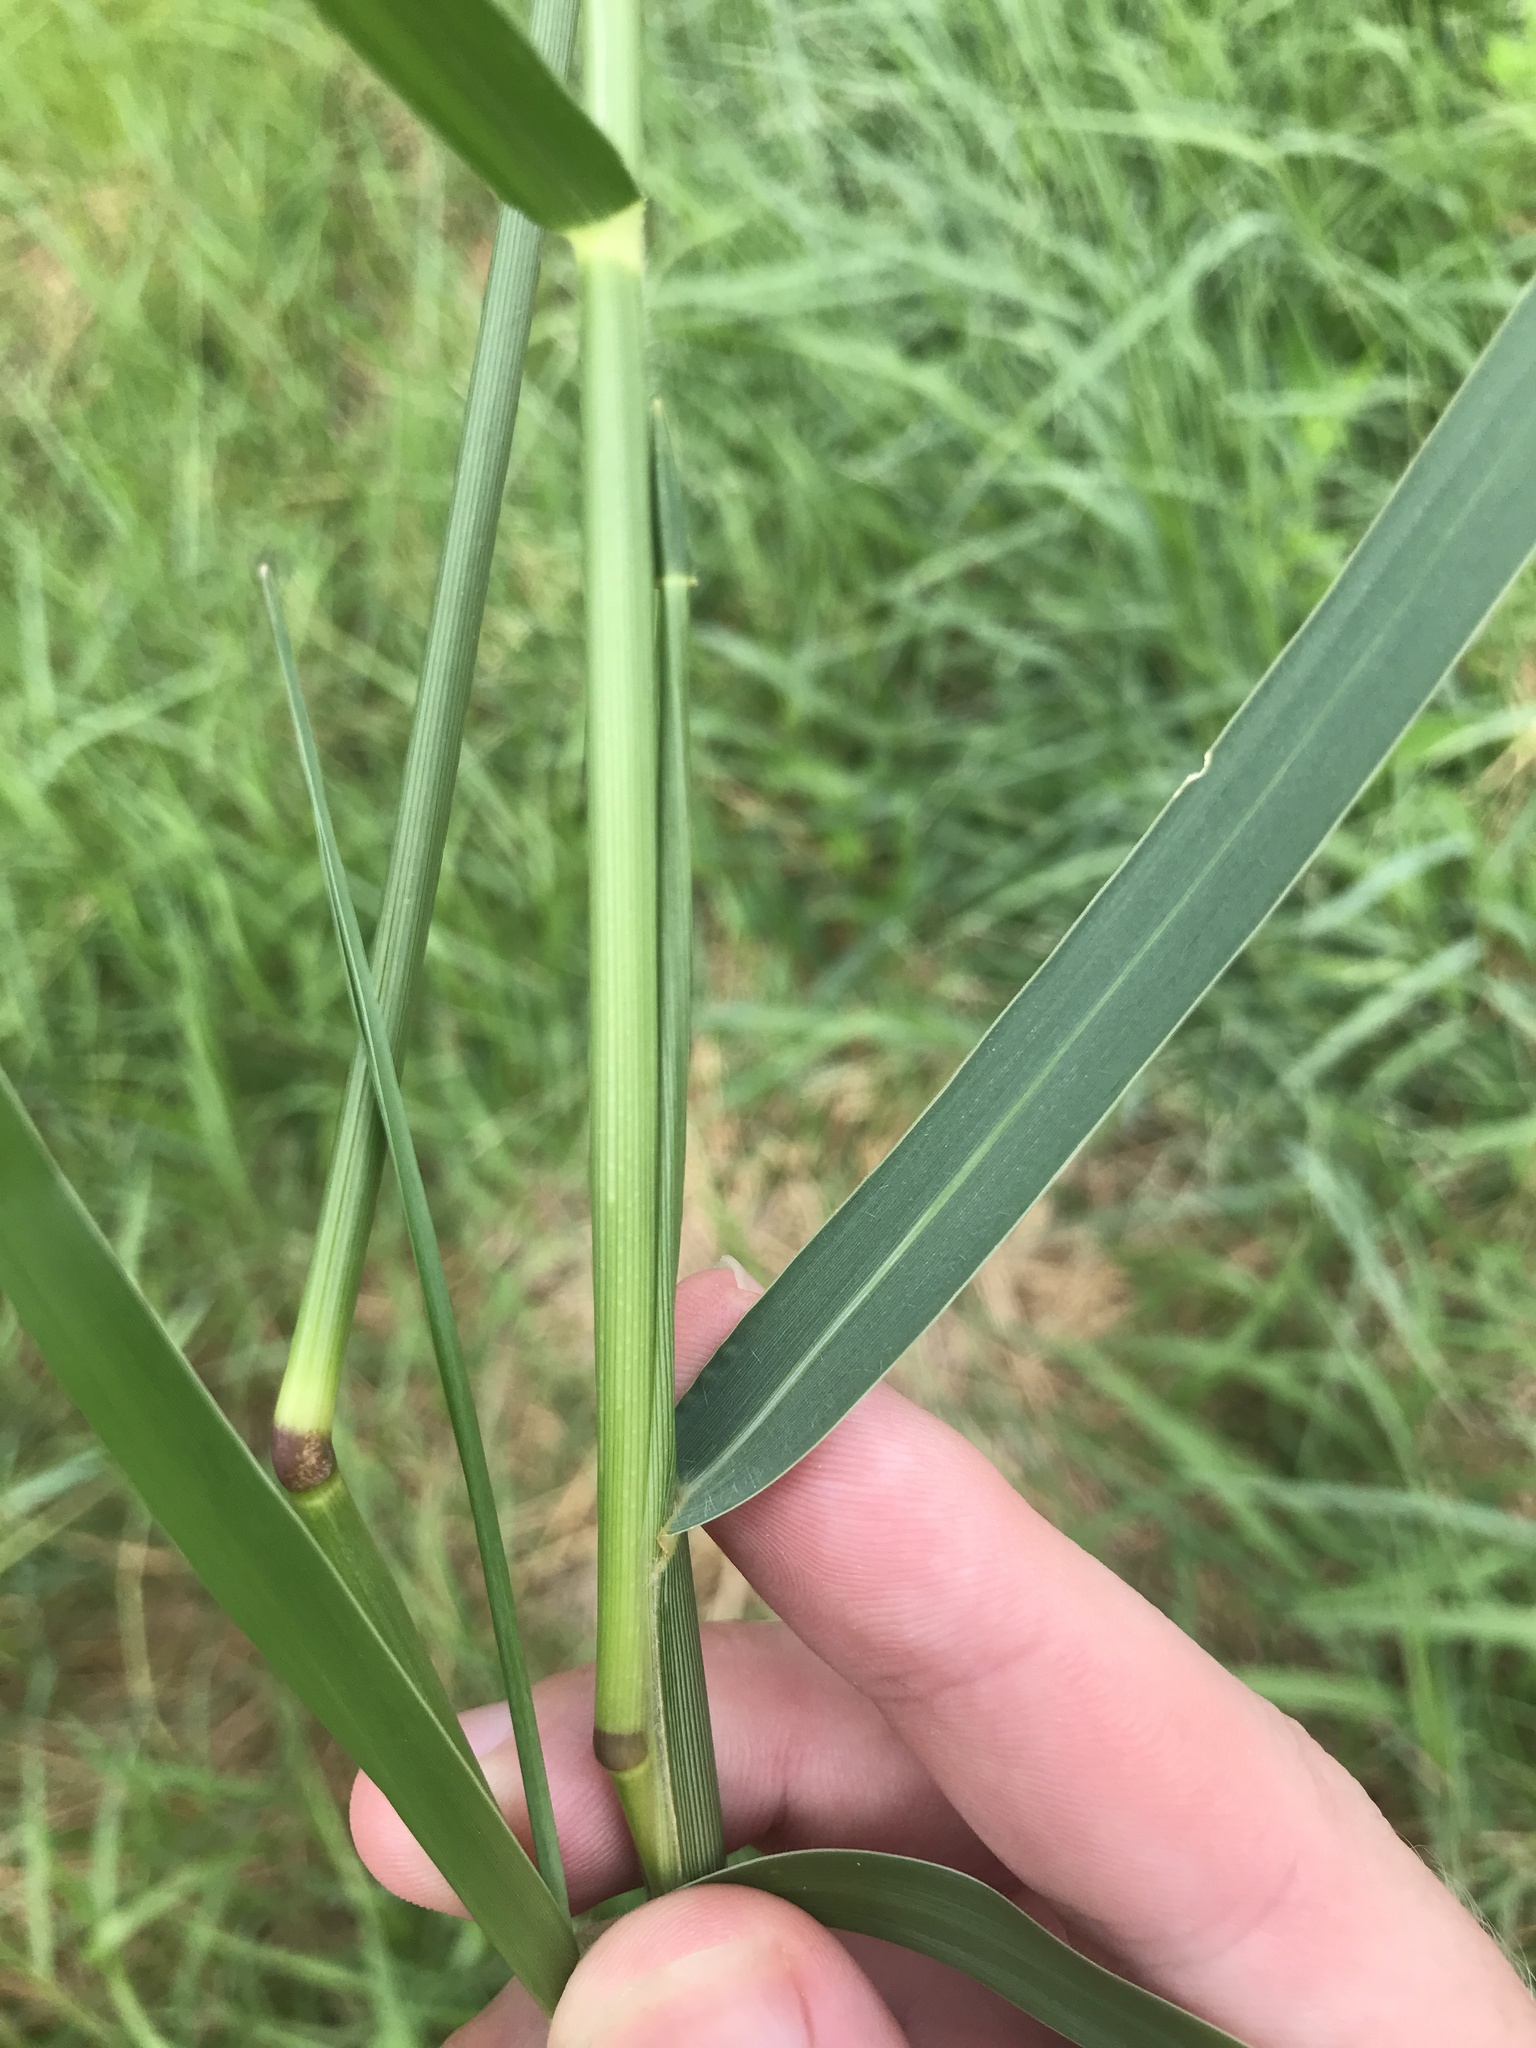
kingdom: Plantae
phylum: Tracheophyta
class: Liliopsida
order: Poales
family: Poaceae
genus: Panicum
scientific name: Panicum repens
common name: Torpedo grass
